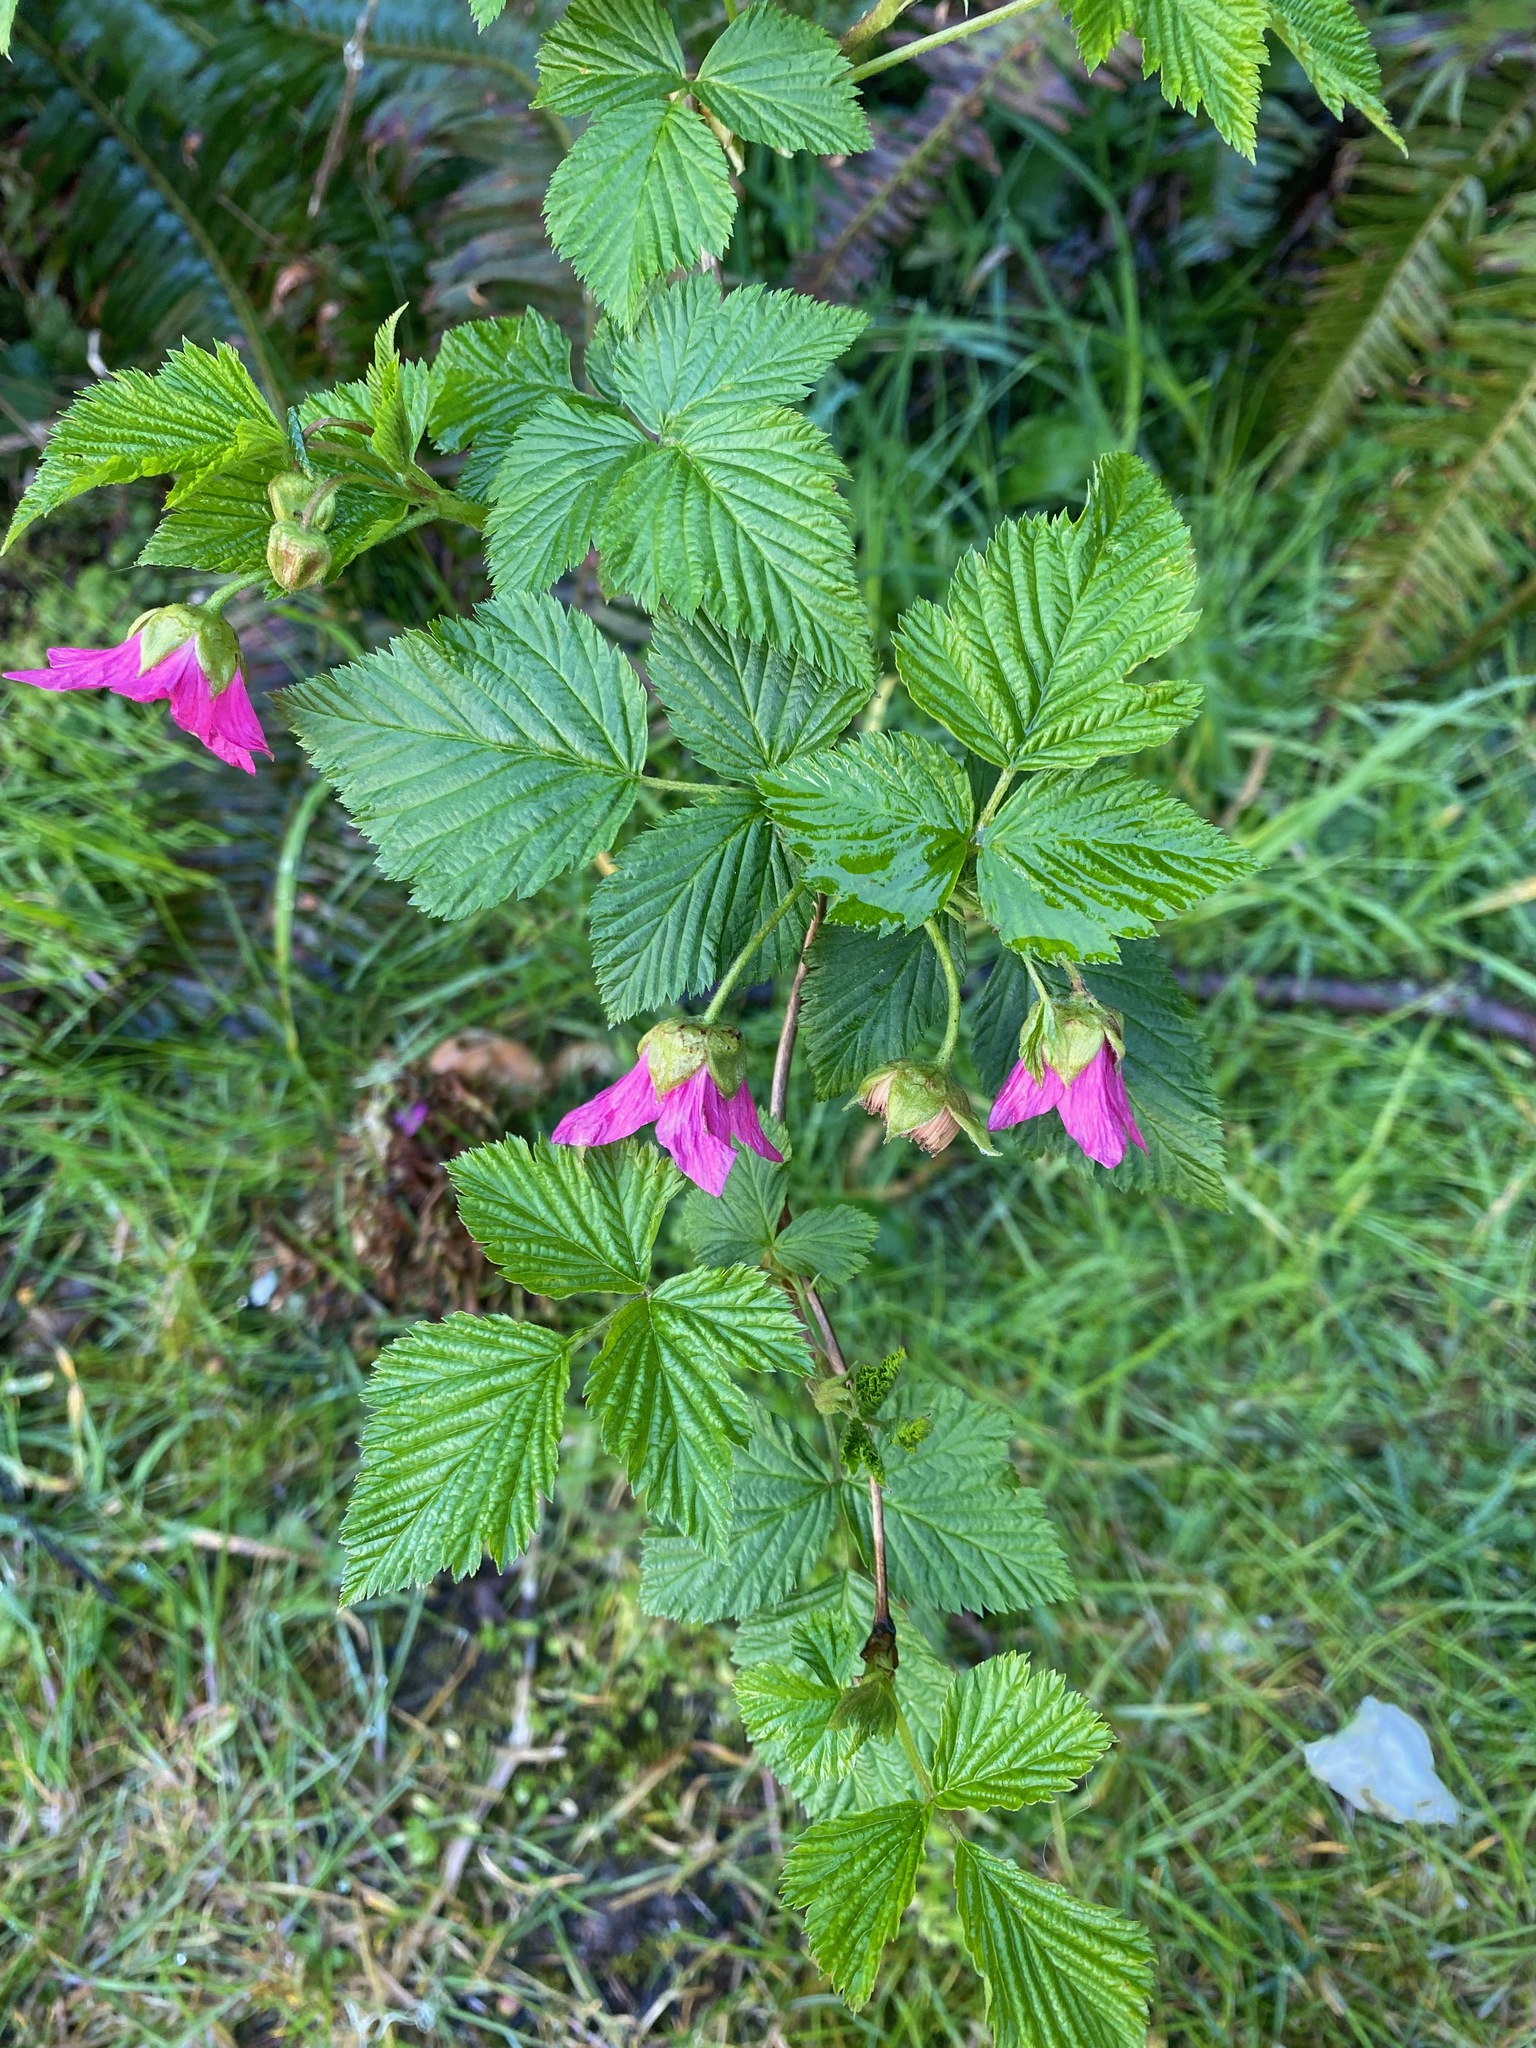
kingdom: Plantae
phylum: Tracheophyta
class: Magnoliopsida
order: Rosales
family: Rosaceae
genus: Rubus
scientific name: Rubus spectabilis
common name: Salmonberry
